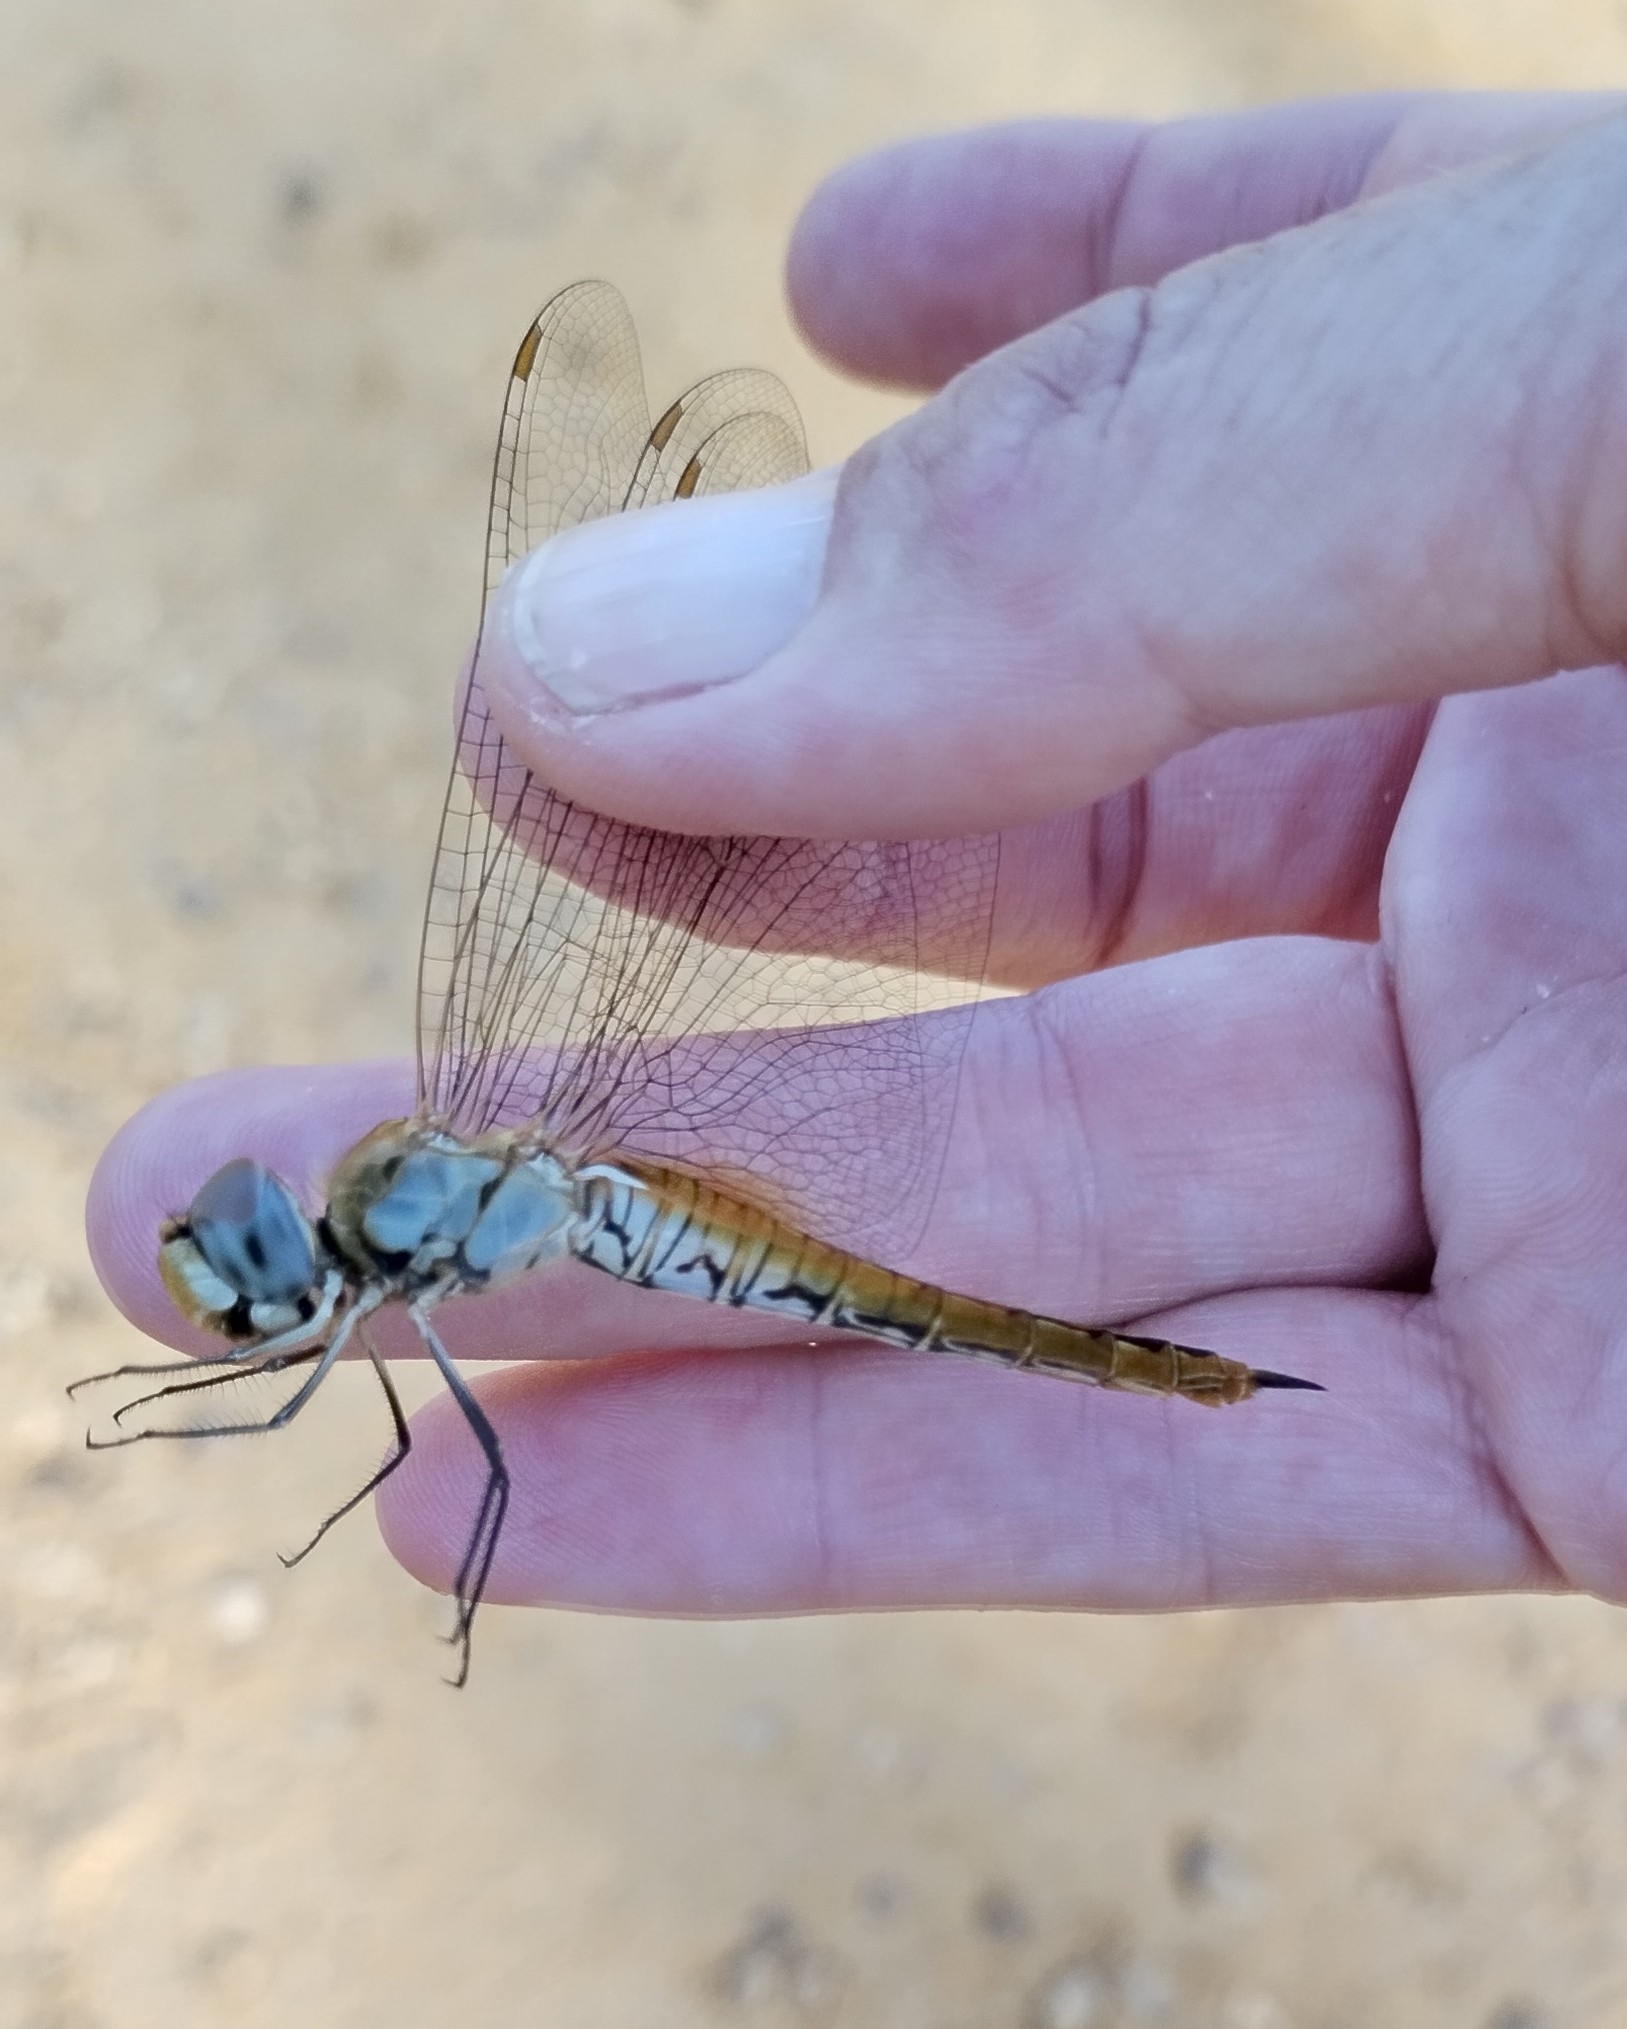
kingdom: Animalia
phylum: Arthropoda
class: Insecta
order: Odonata
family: Libellulidae
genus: Pantala
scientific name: Pantala flavescens
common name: Wandering glider
